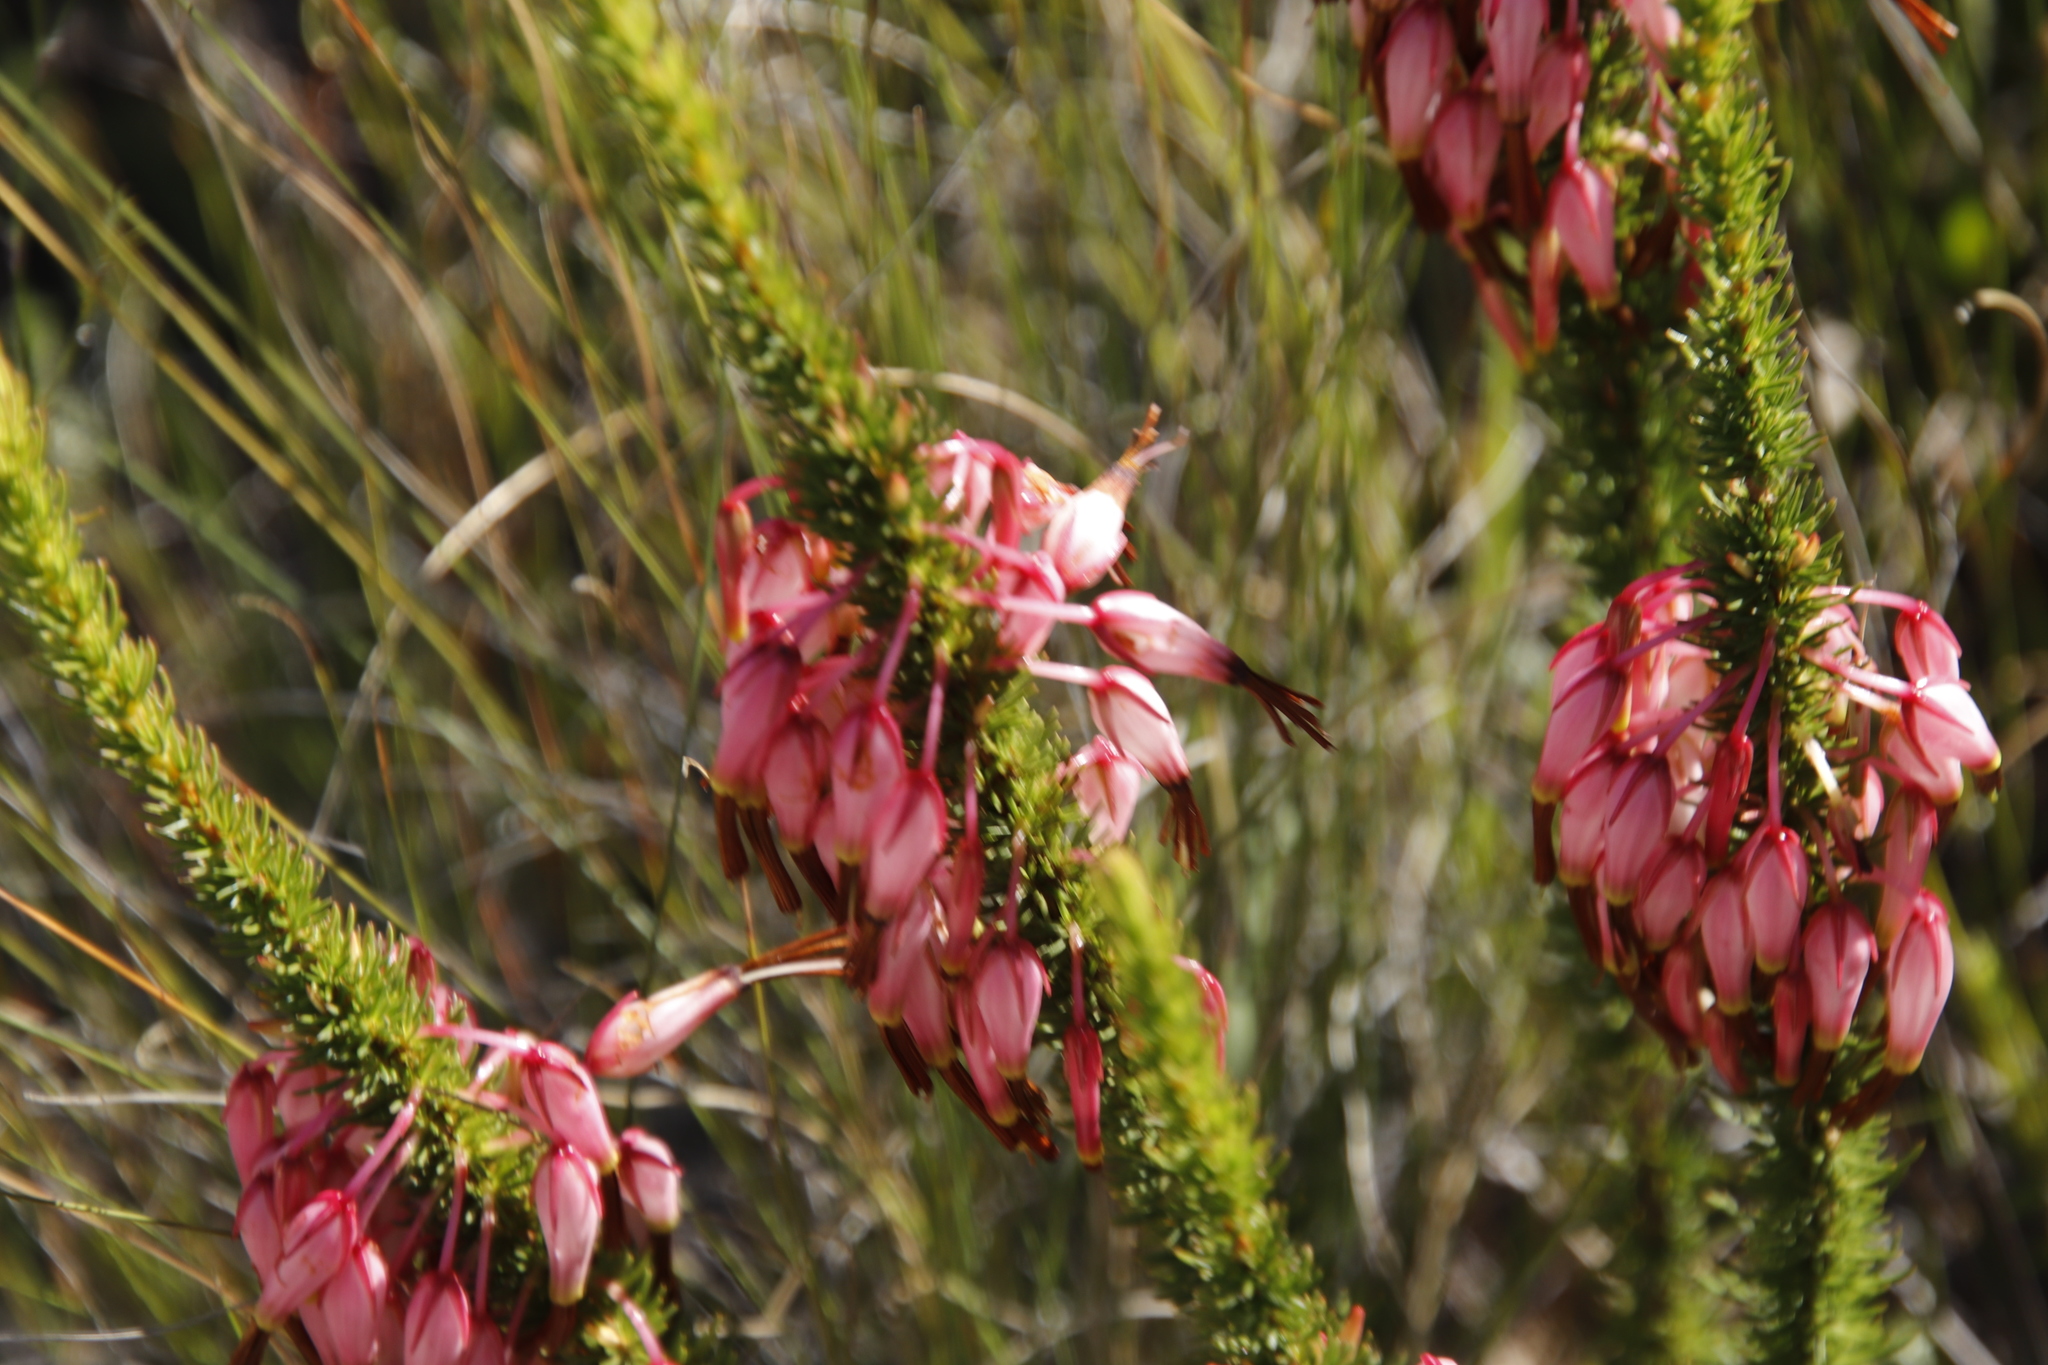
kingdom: Plantae
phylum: Tracheophyta
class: Magnoliopsida
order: Ericales
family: Ericaceae
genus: Erica
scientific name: Erica plukenetii
